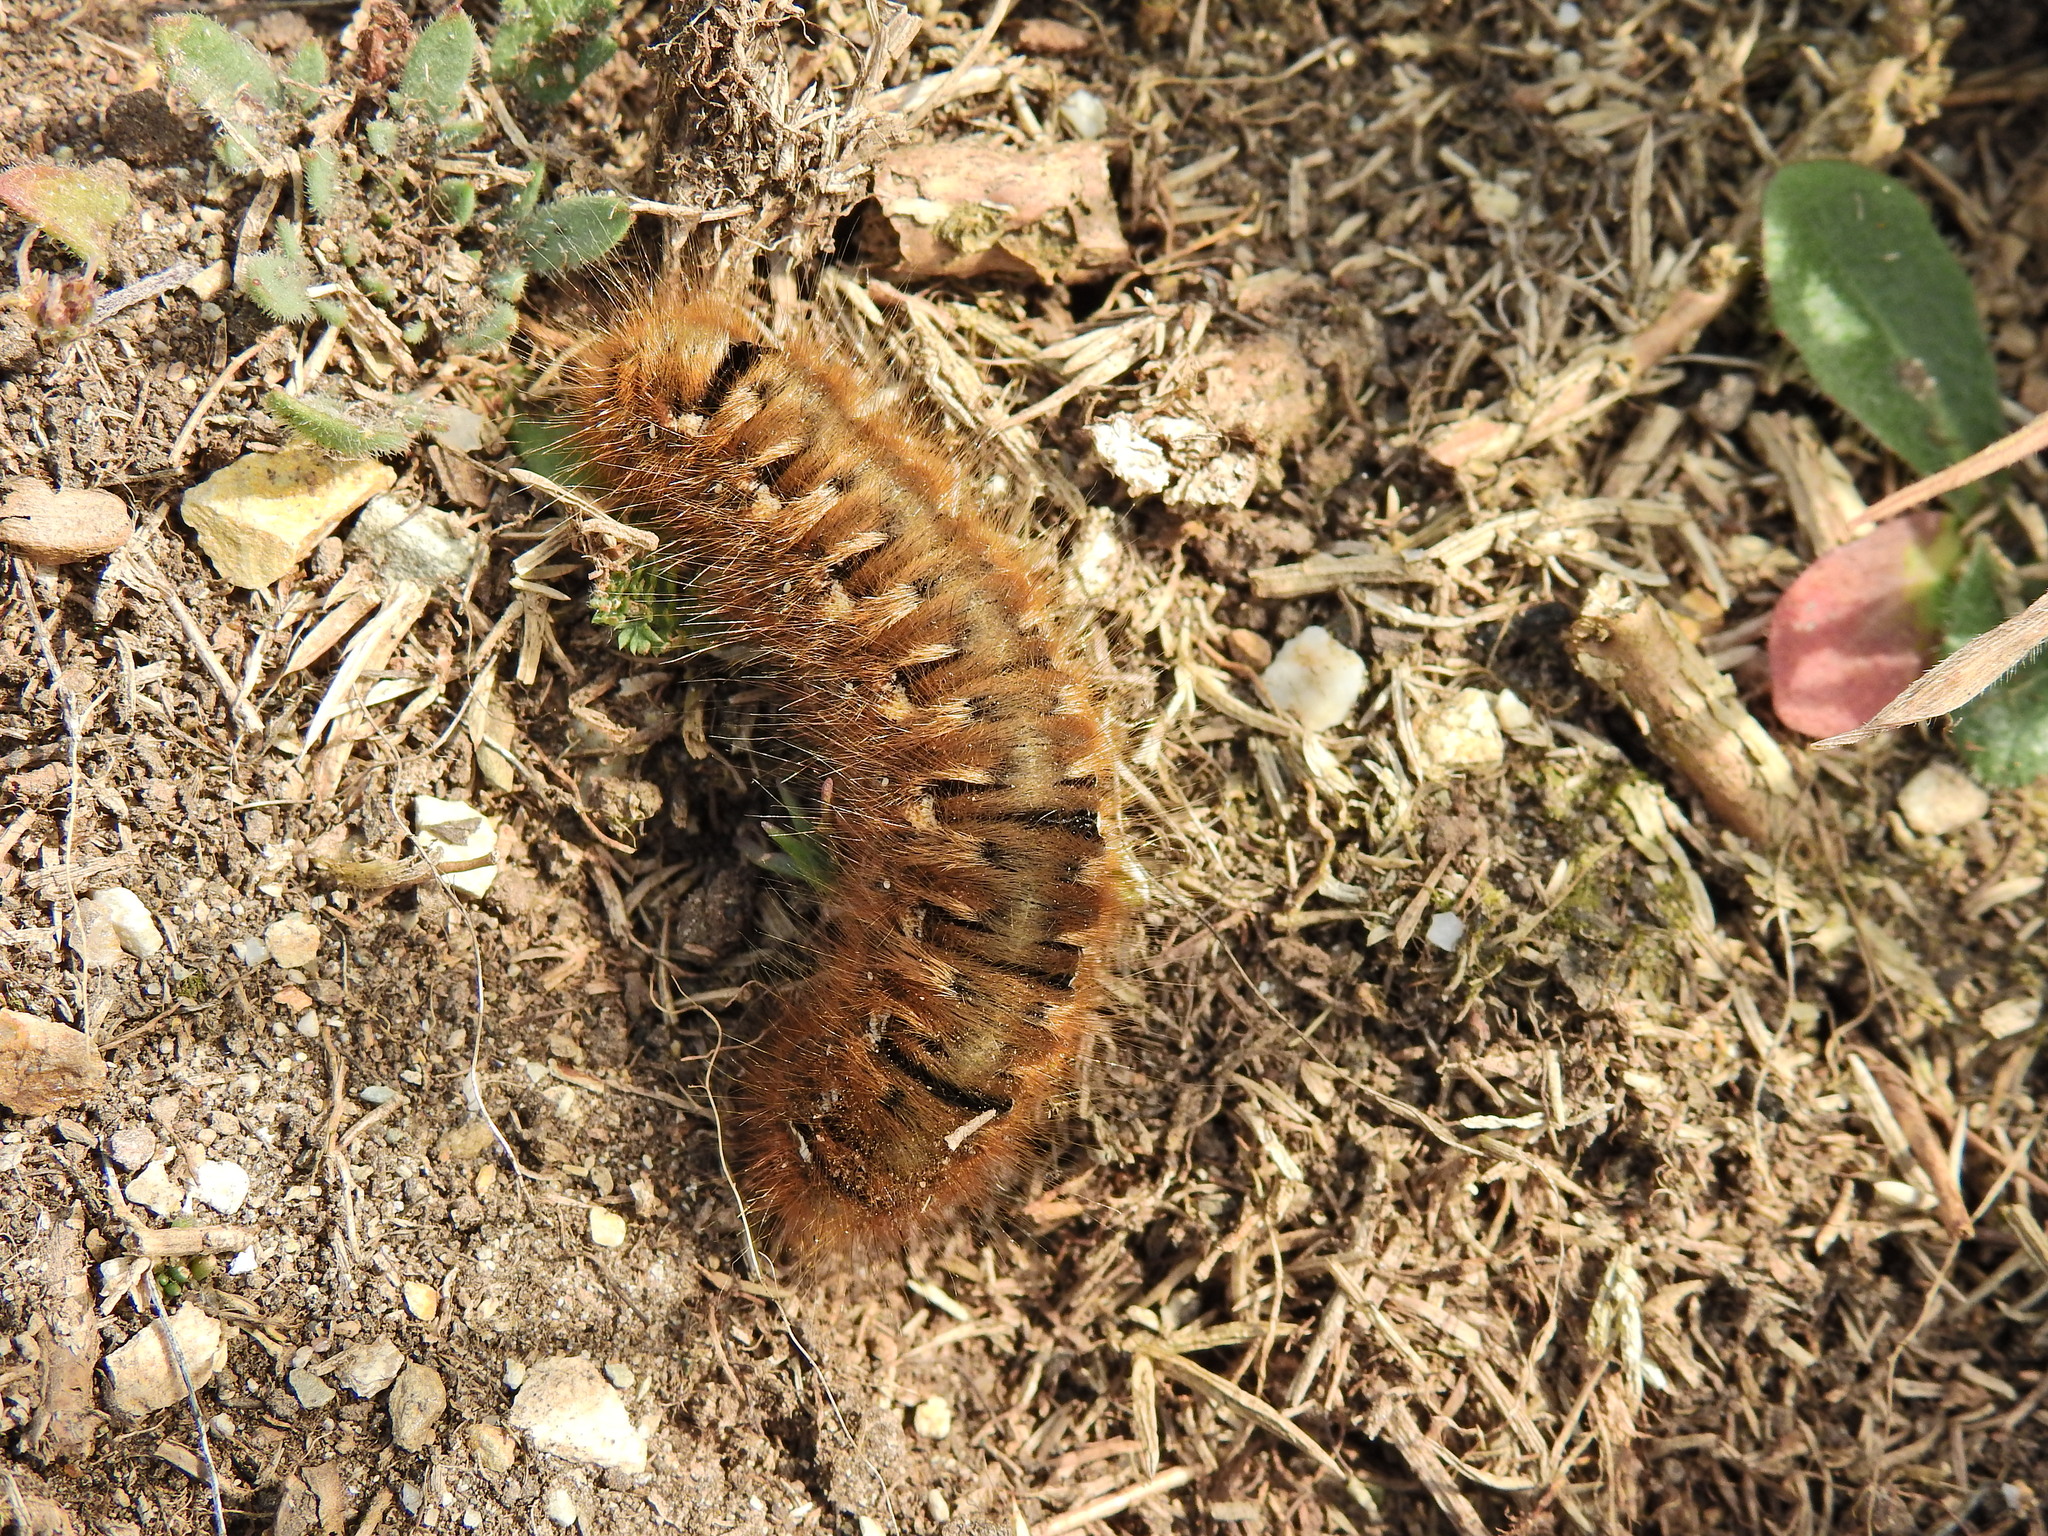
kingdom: Animalia
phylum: Arthropoda
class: Insecta
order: Lepidoptera
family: Lasiocampidae
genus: Lasiocampa
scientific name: Lasiocampa quercus
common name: Oak eggar
